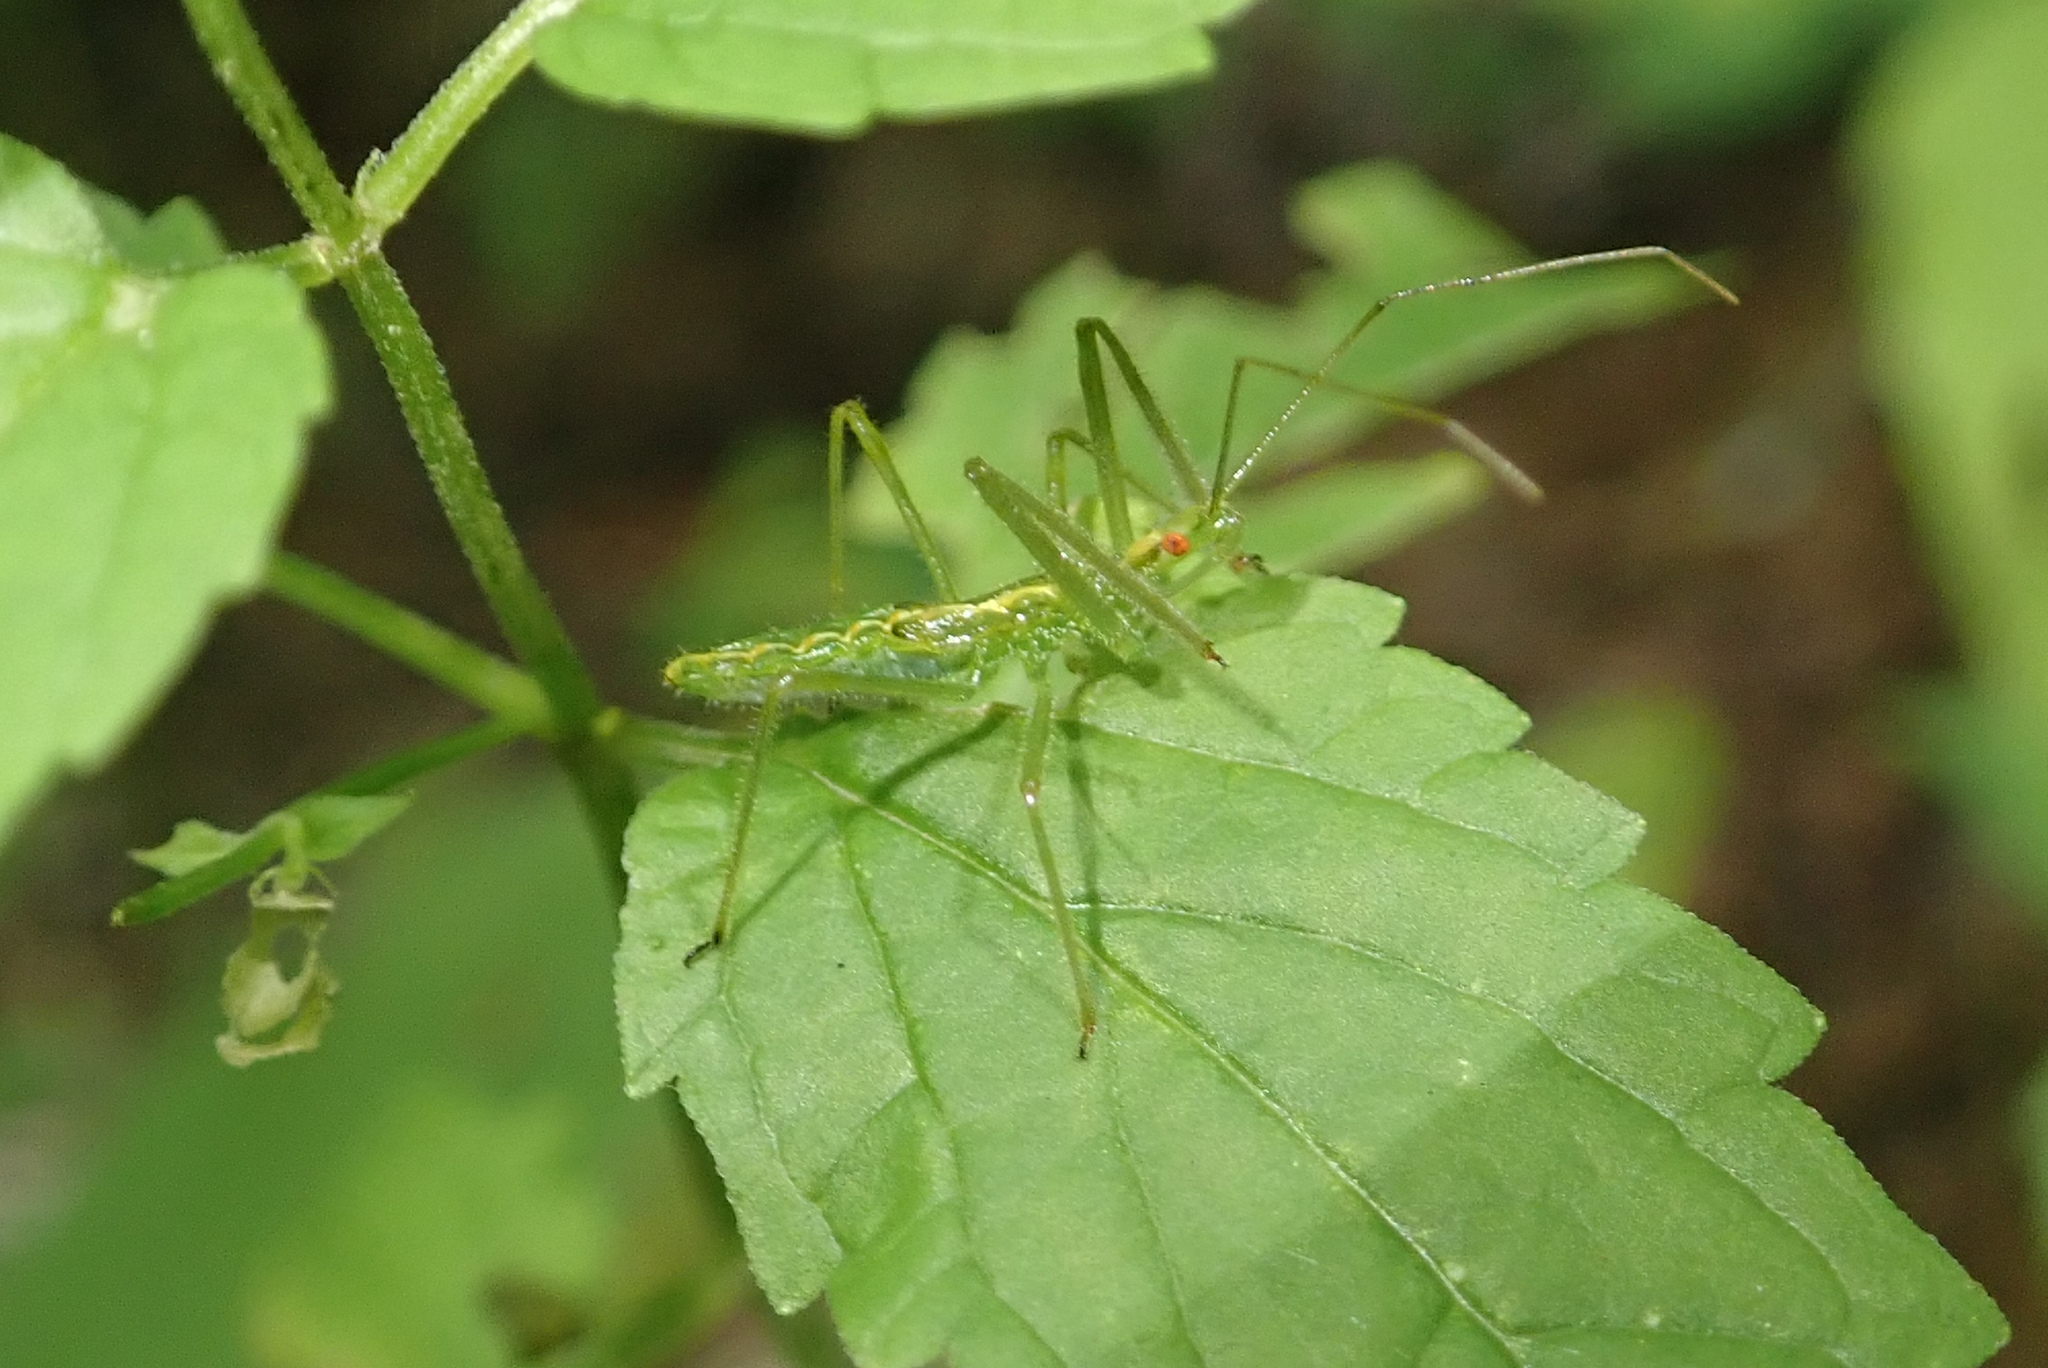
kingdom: Animalia
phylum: Arthropoda
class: Insecta
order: Hemiptera
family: Reduviidae
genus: Zelus
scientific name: Zelus luridus
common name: Pale green assassin bug
